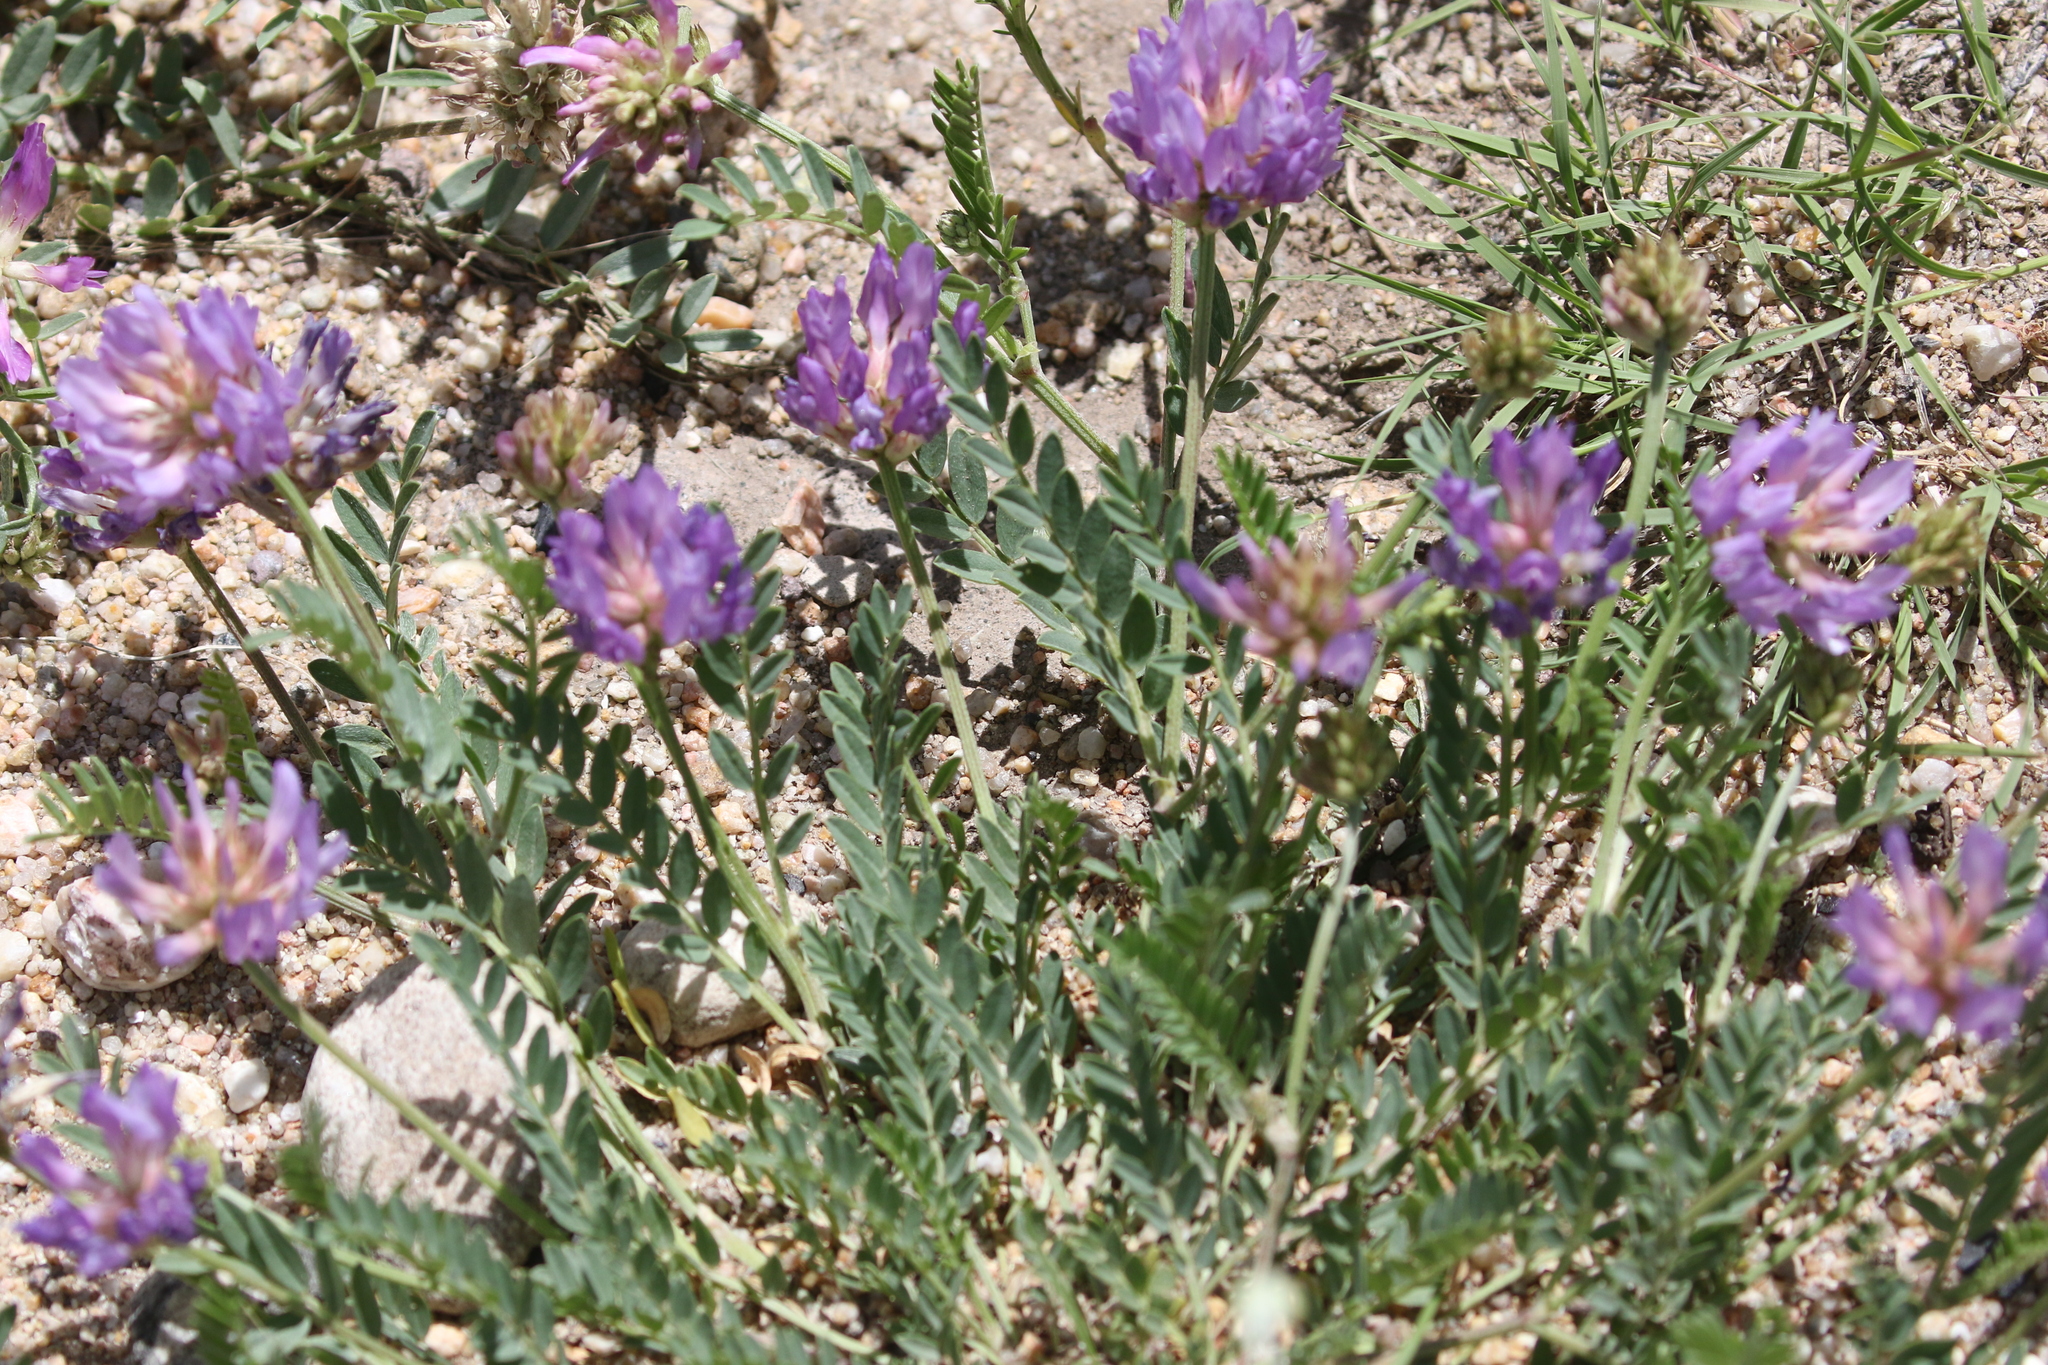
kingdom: Plantae
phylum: Tracheophyta
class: Magnoliopsida
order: Fabales
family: Fabaceae
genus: Astragalus
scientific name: Astragalus laxmannii
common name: Laxmann's milk-vetch
